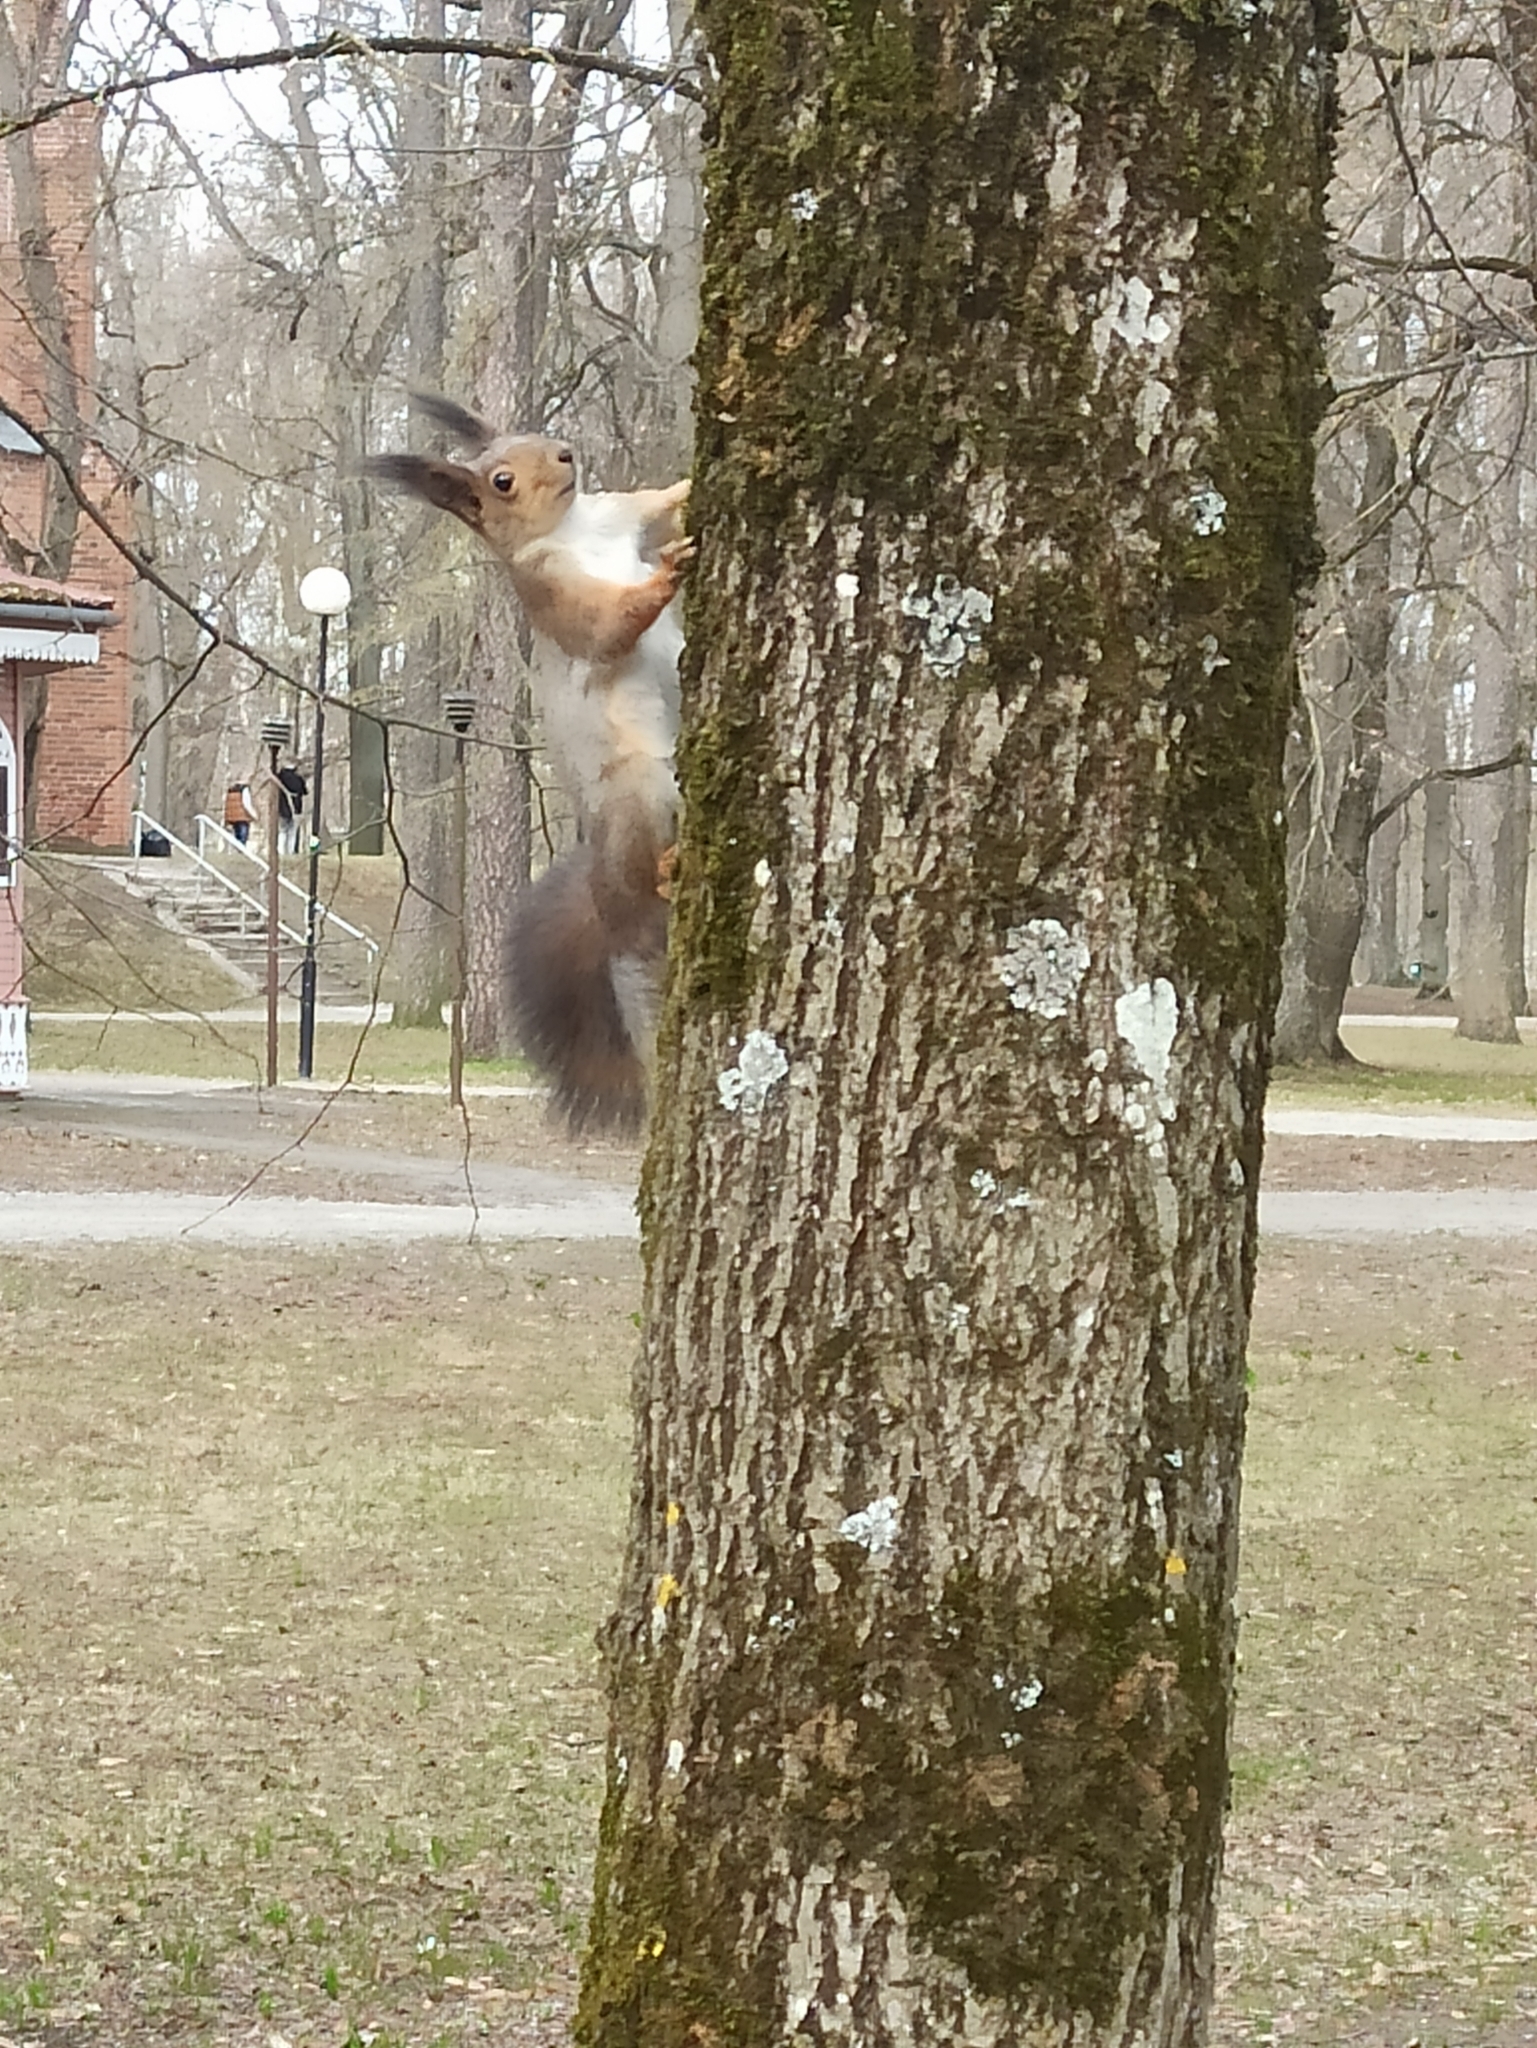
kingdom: Animalia
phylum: Chordata
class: Mammalia
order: Rodentia
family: Sciuridae
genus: Sciurus
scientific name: Sciurus vulgaris
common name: Eurasian red squirrel
